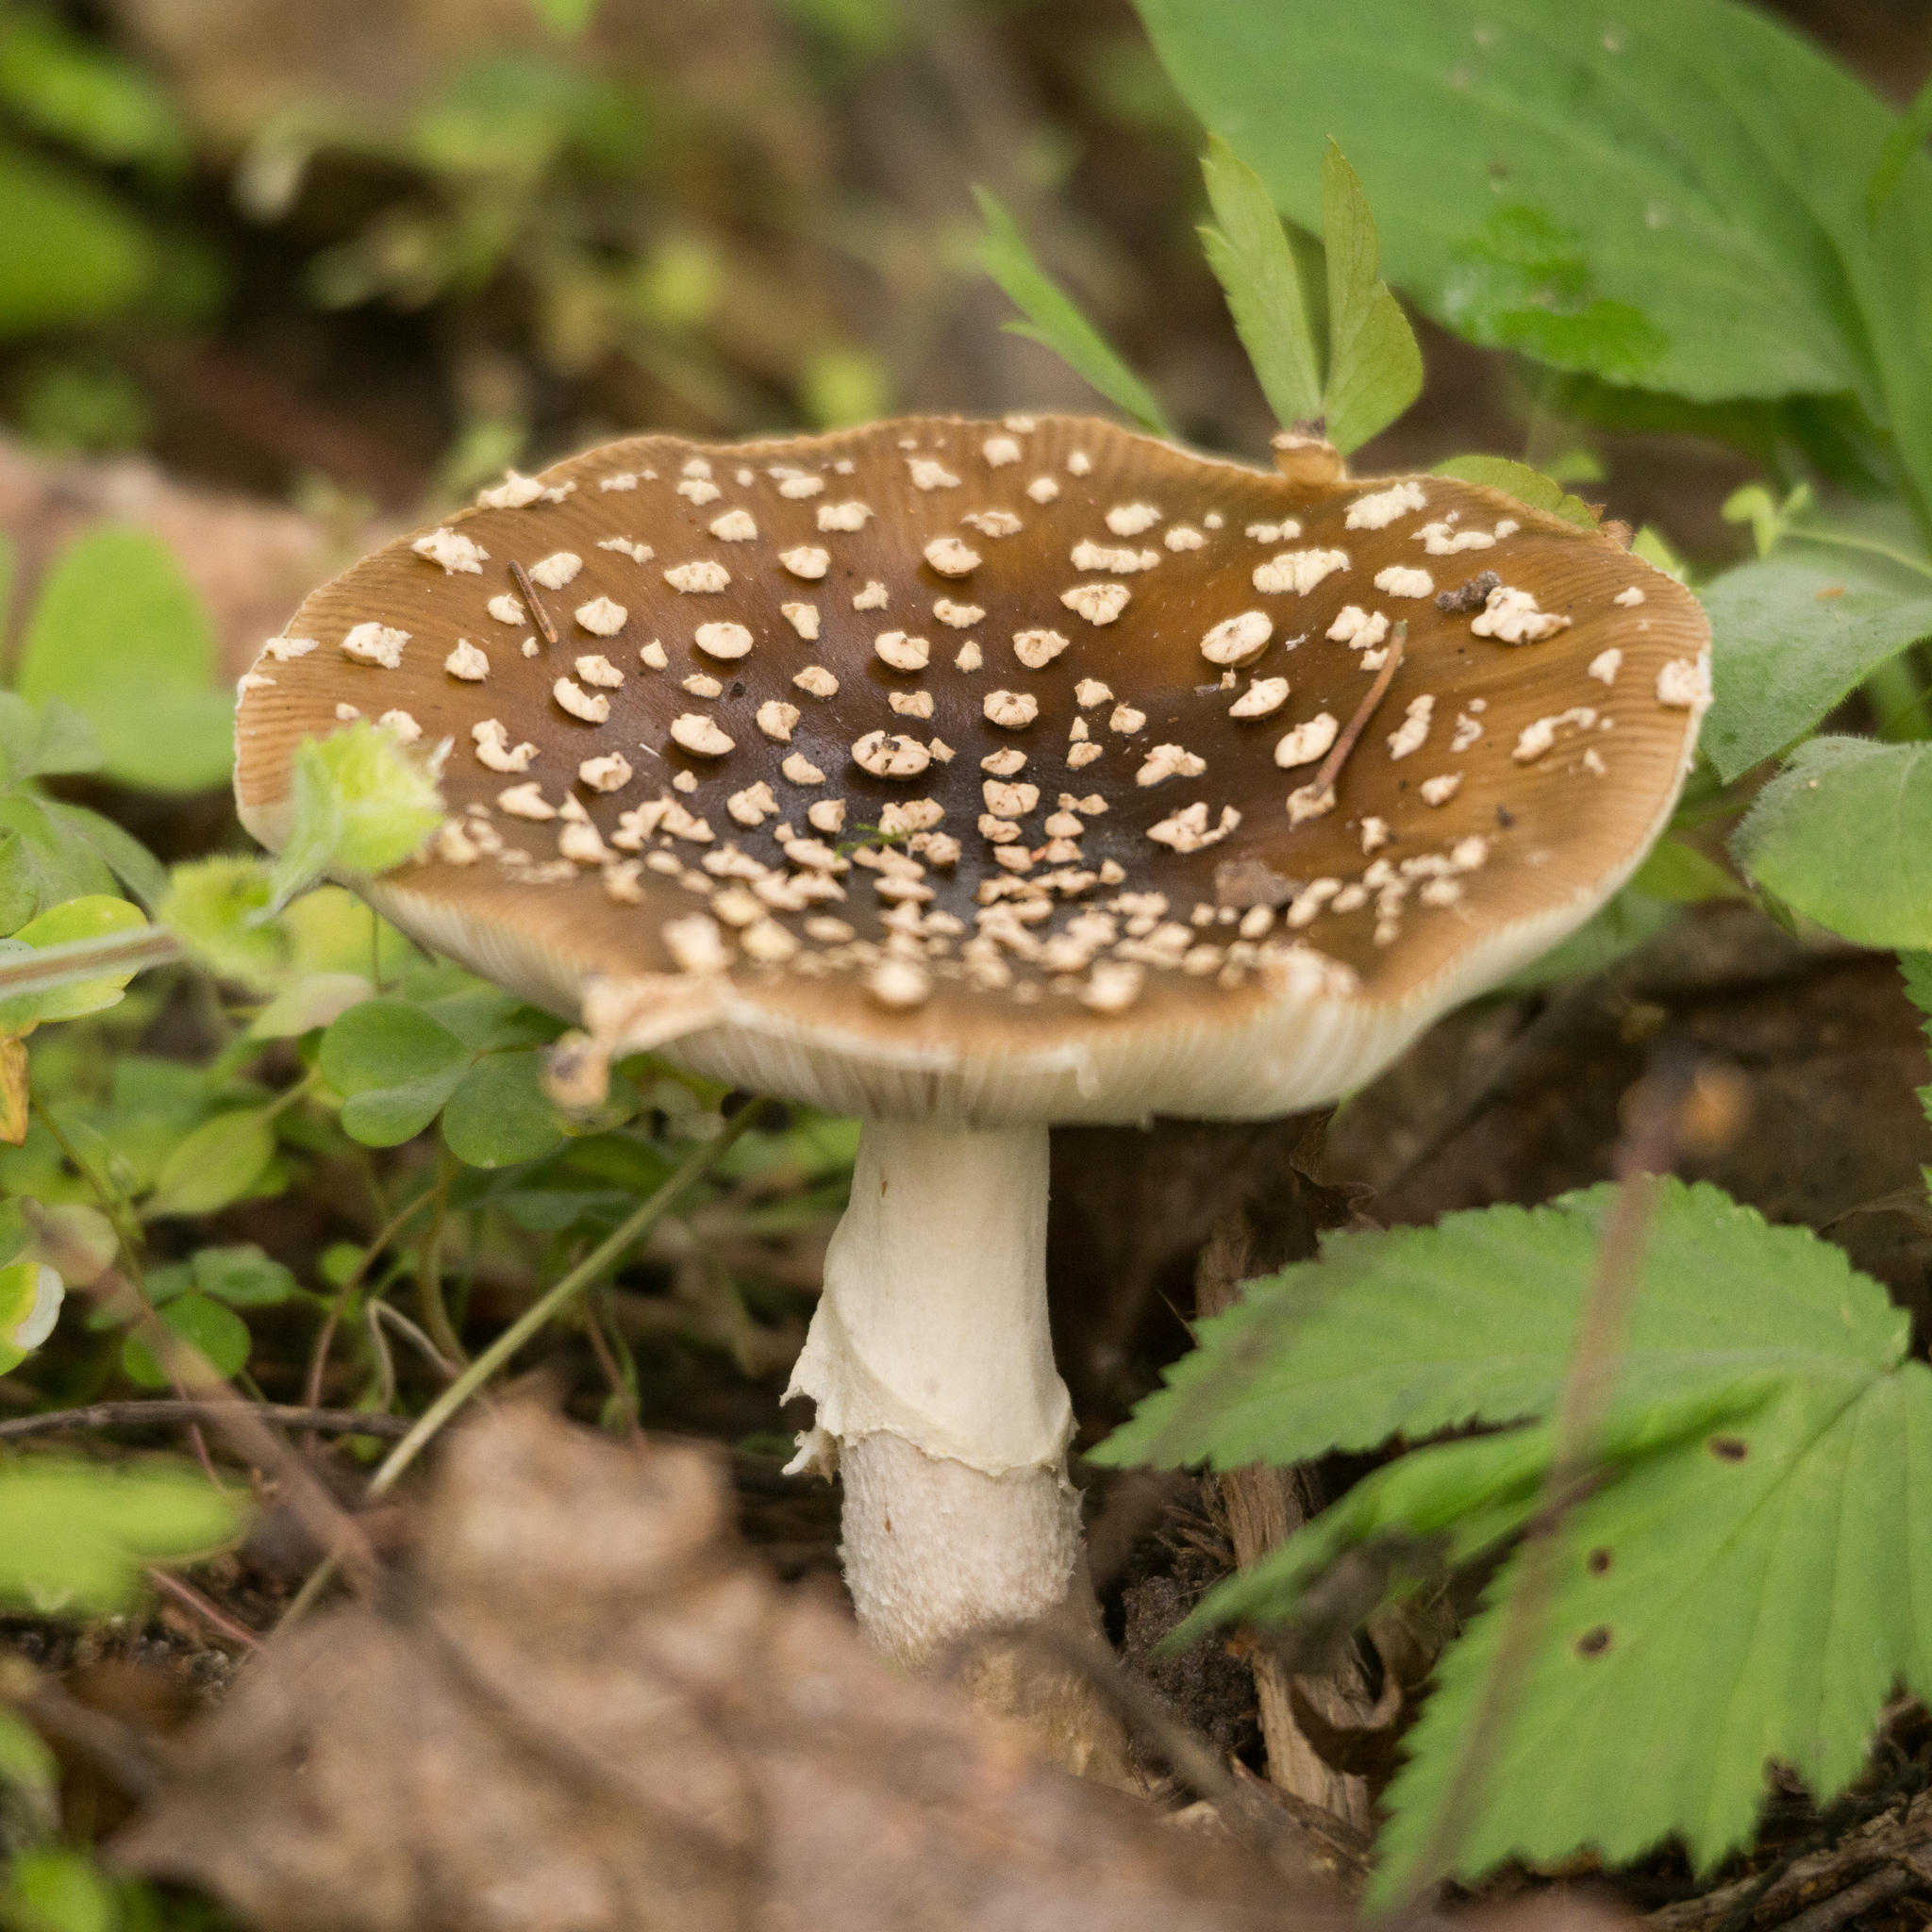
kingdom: Fungi
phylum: Basidiomycota
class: Agaricomycetes
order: Agaricales
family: Amanitaceae
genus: Amanita
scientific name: Amanita regalis
